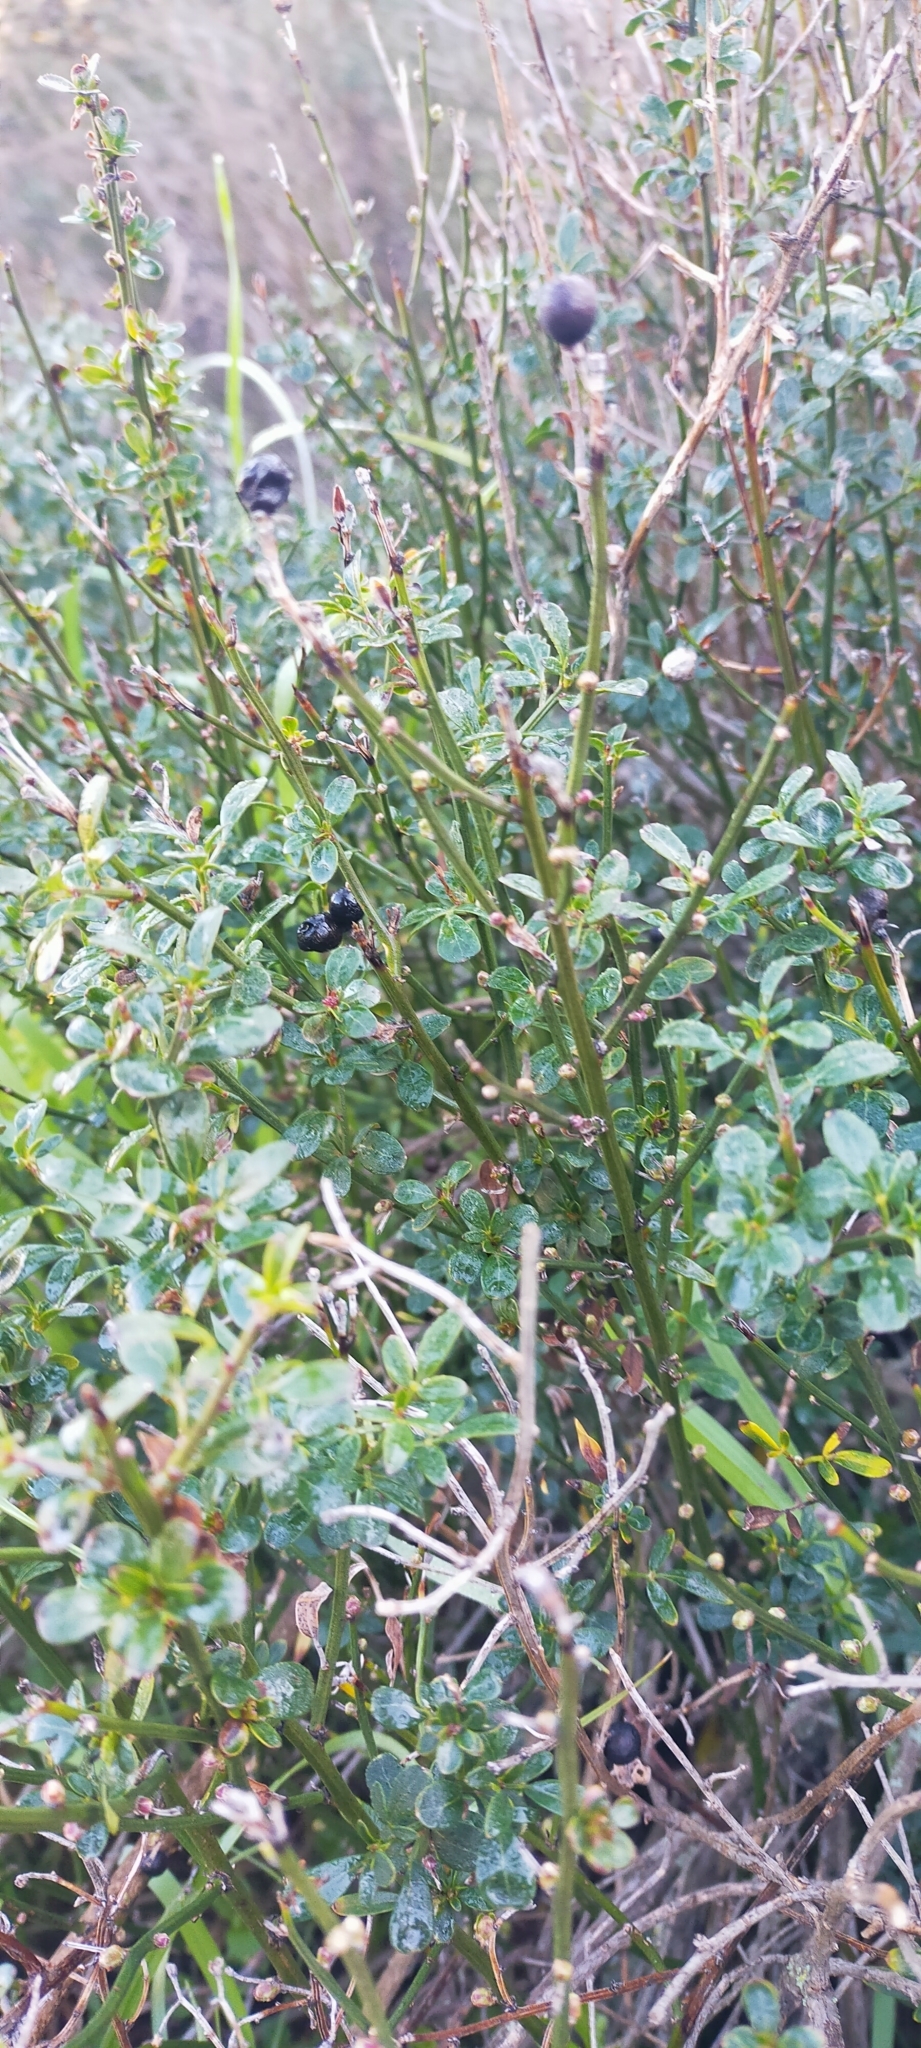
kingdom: Plantae
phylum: Tracheophyta
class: Magnoliopsida
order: Lamiales
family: Oleaceae
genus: Chrysojasminum
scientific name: Chrysojasminum fruticans
